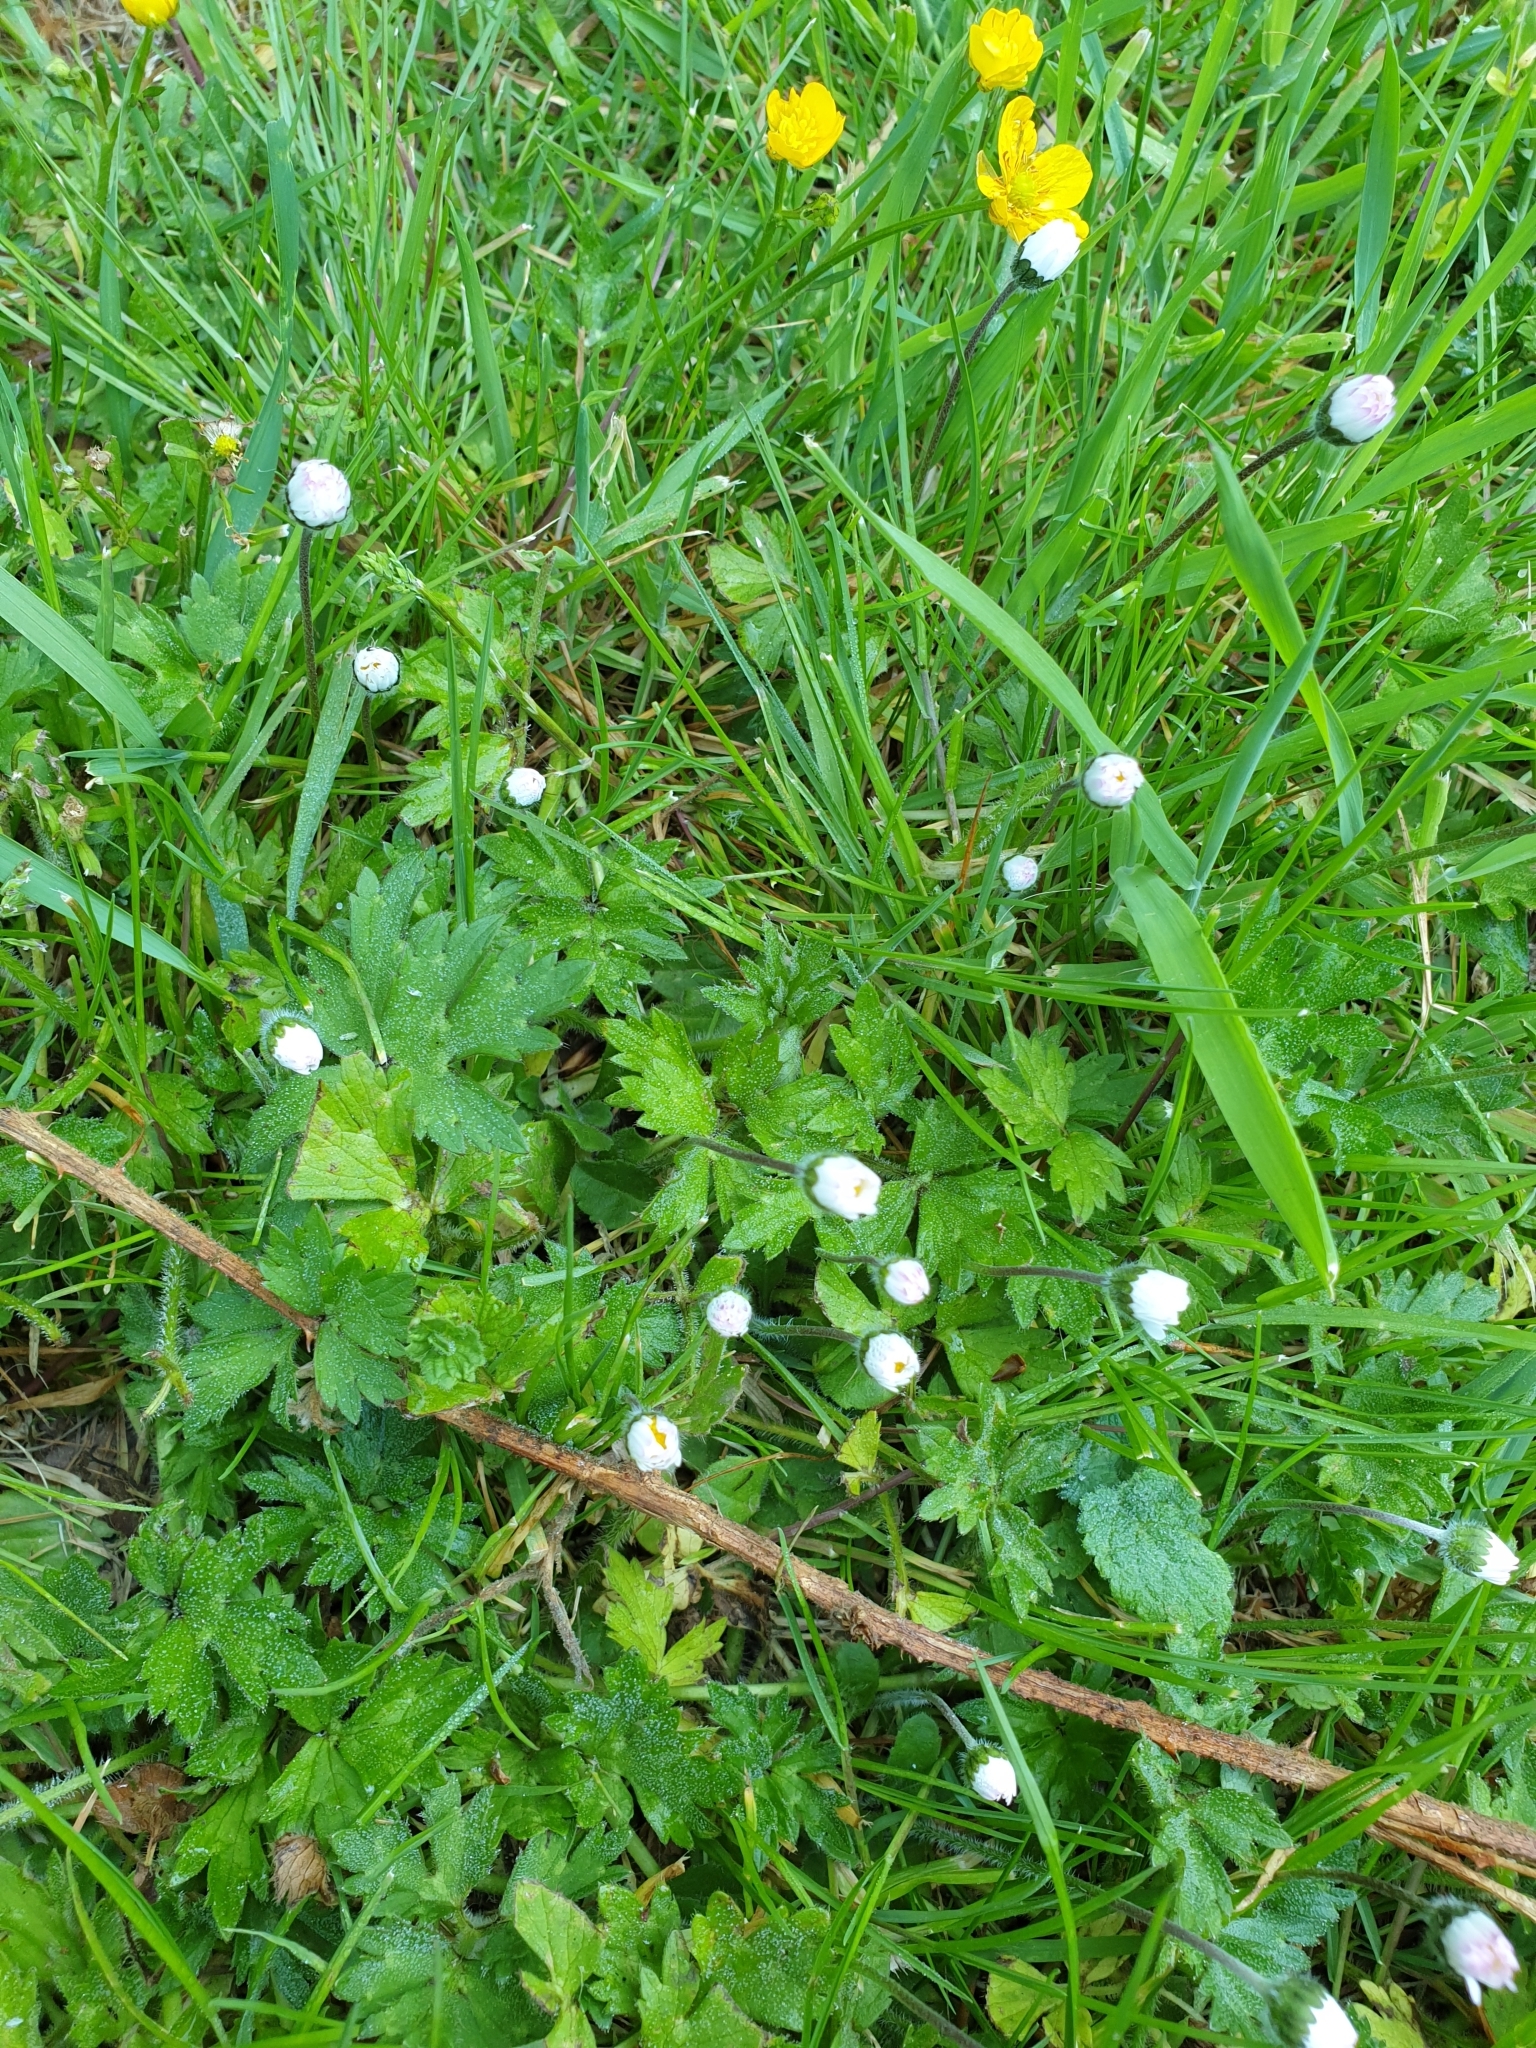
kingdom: Plantae
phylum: Tracheophyta
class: Magnoliopsida
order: Asterales
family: Asteraceae
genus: Bellis
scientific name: Bellis perennis
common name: Lawndaisy
